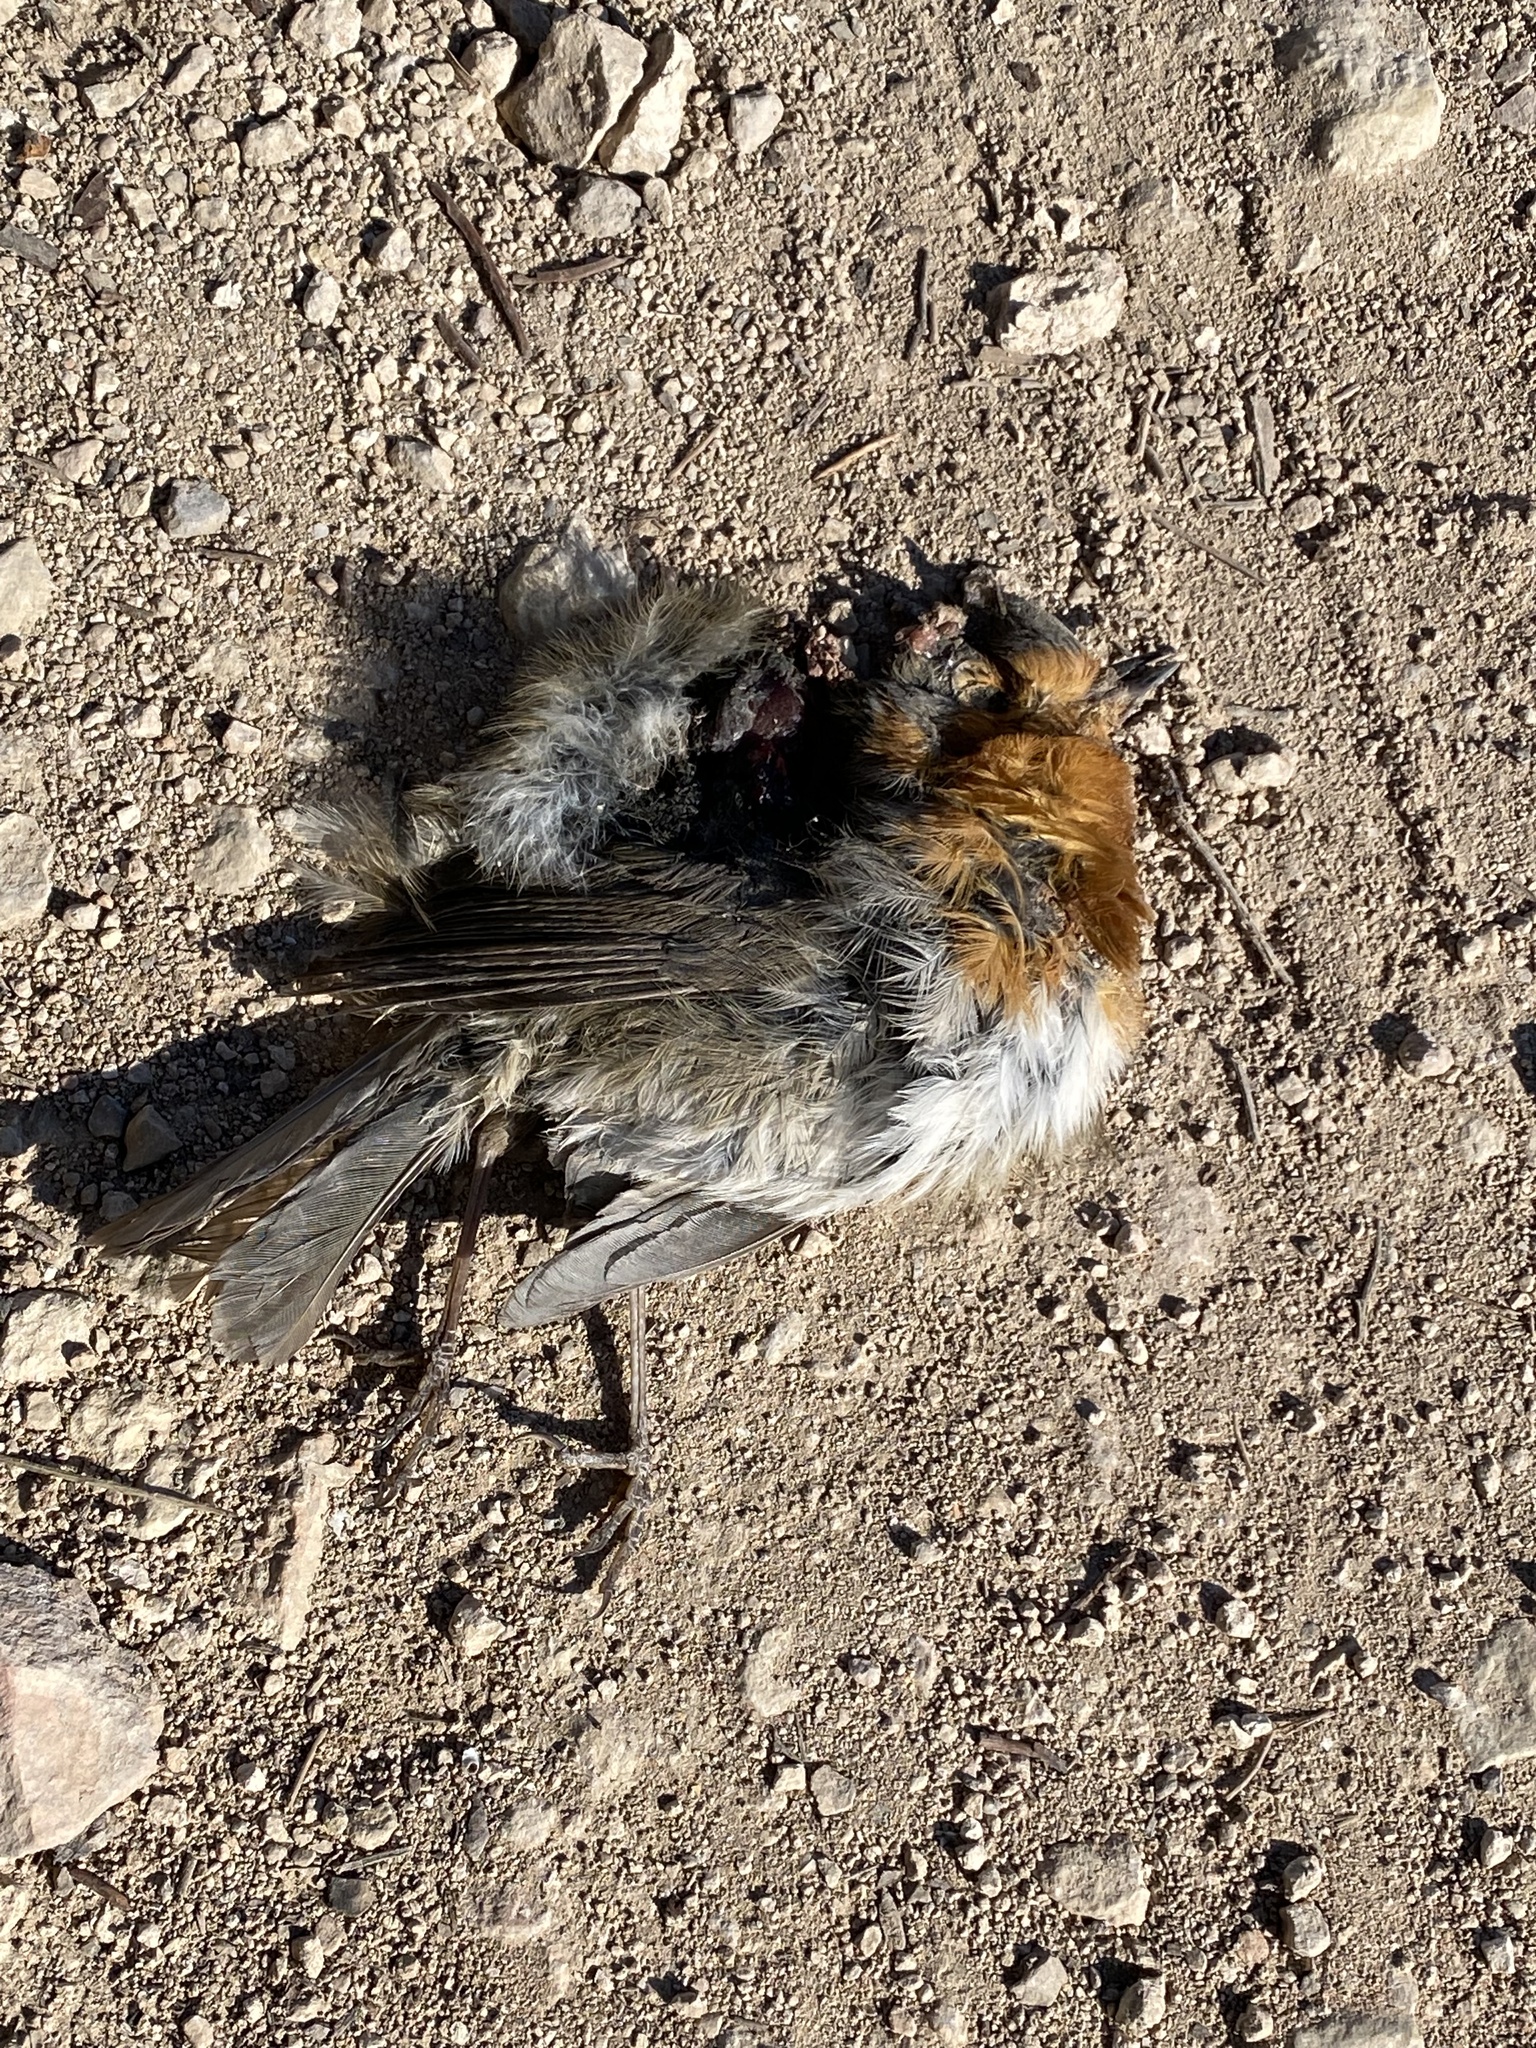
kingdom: Animalia
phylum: Chordata
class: Aves
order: Passeriformes
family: Muscicapidae
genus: Erithacus
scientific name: Erithacus rubecula
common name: European robin
